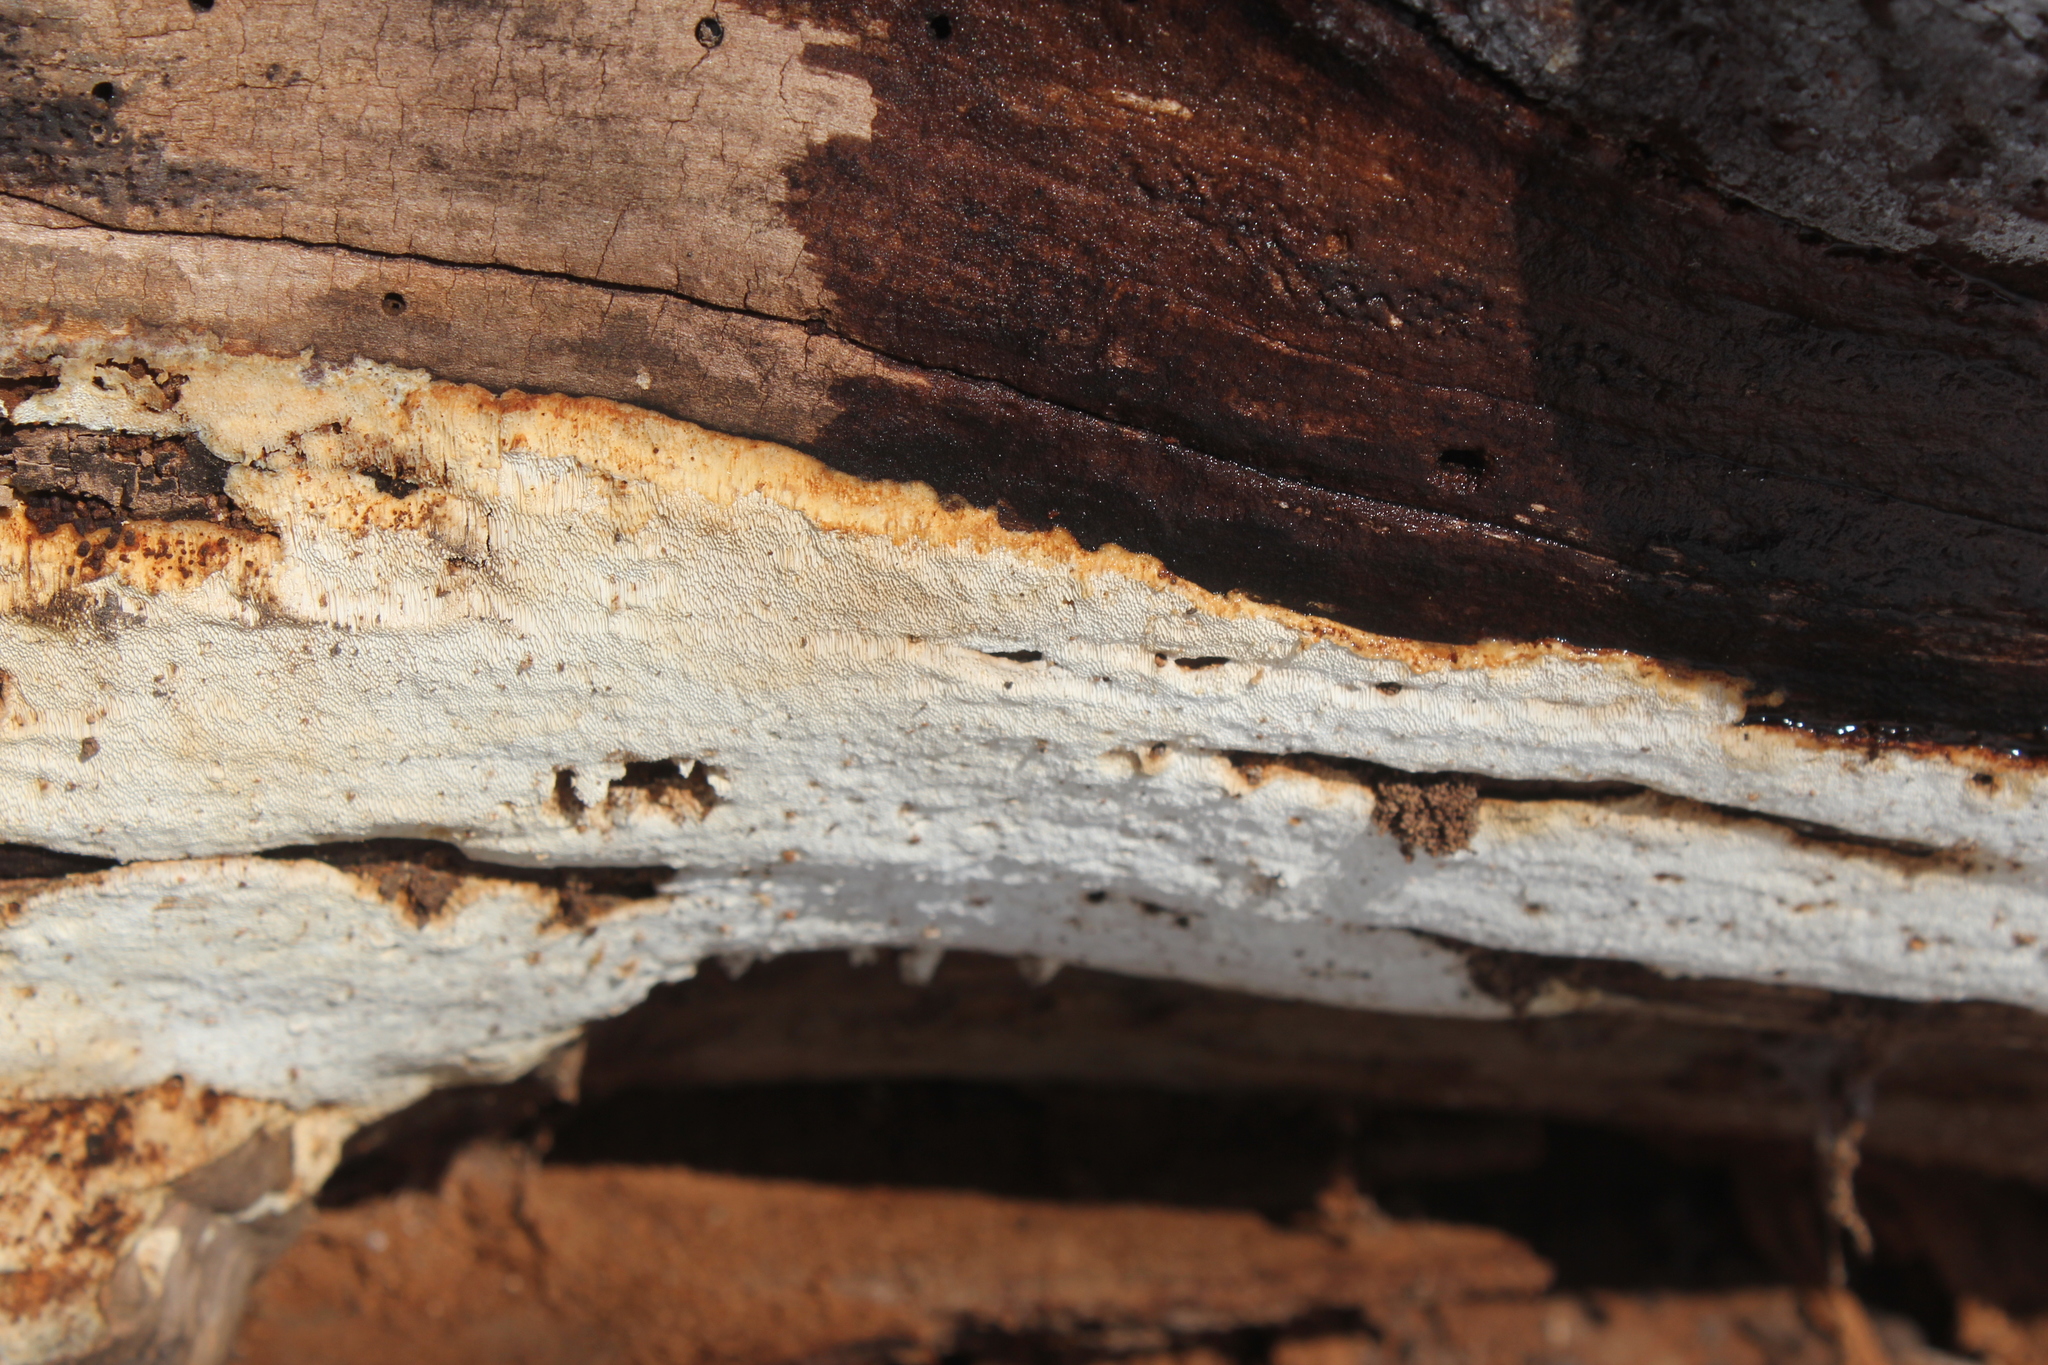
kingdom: Fungi
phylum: Basidiomycota
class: Agaricomycetes
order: Hymenochaetales
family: Schizoporaceae
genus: Schizopora
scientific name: Schizopora paradoxa
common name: Split porecrust
